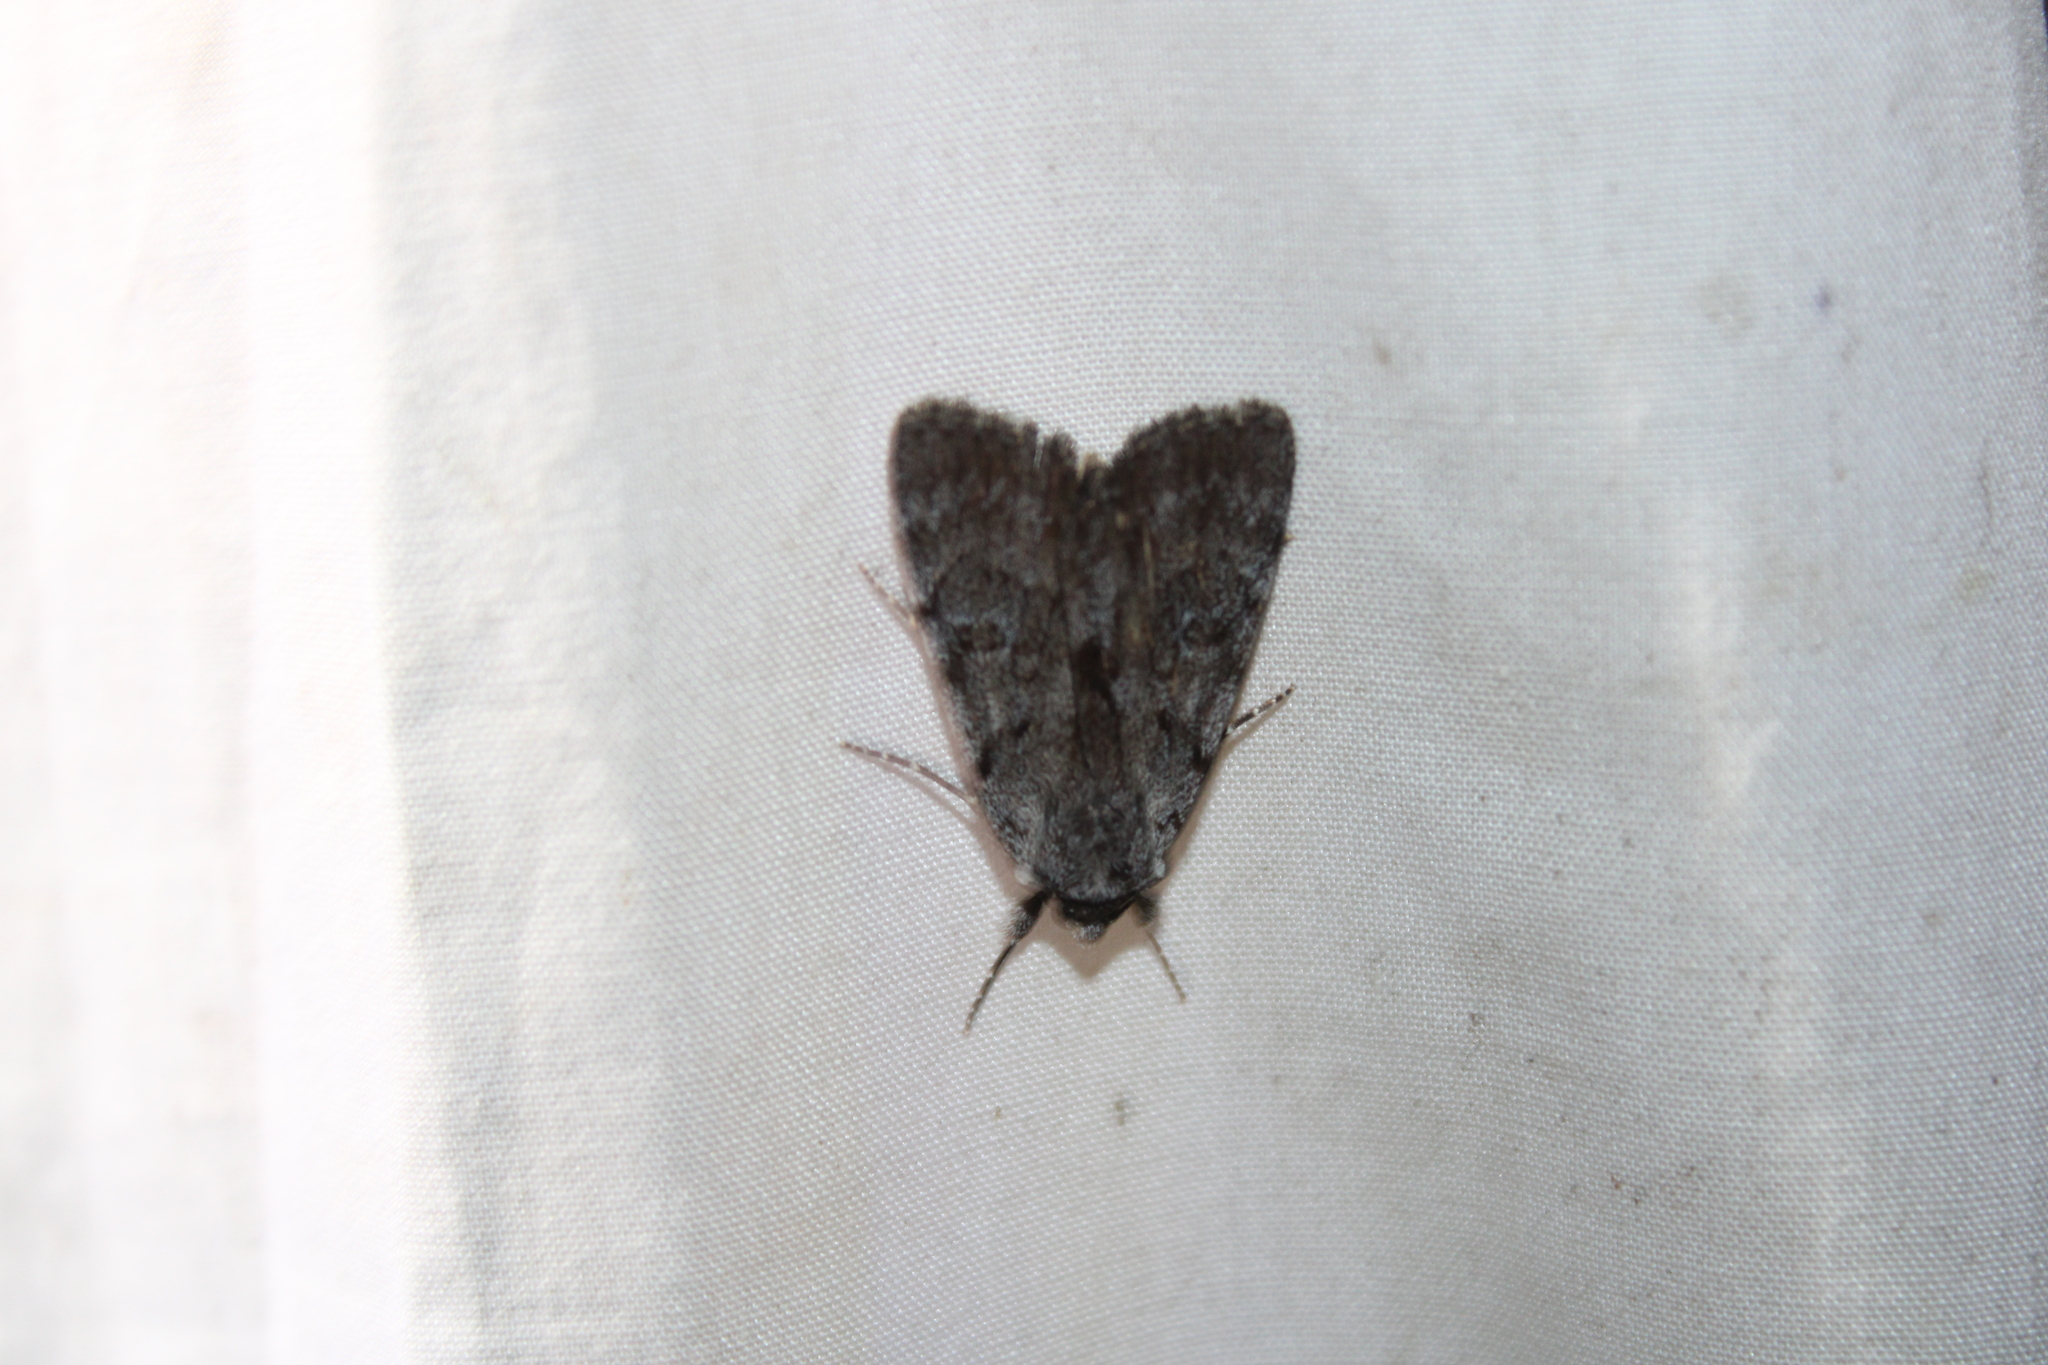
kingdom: Animalia
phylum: Arthropoda
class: Insecta
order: Lepidoptera
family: Erebidae
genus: Catocala
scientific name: Catocala sordida
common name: Sordid underwing
